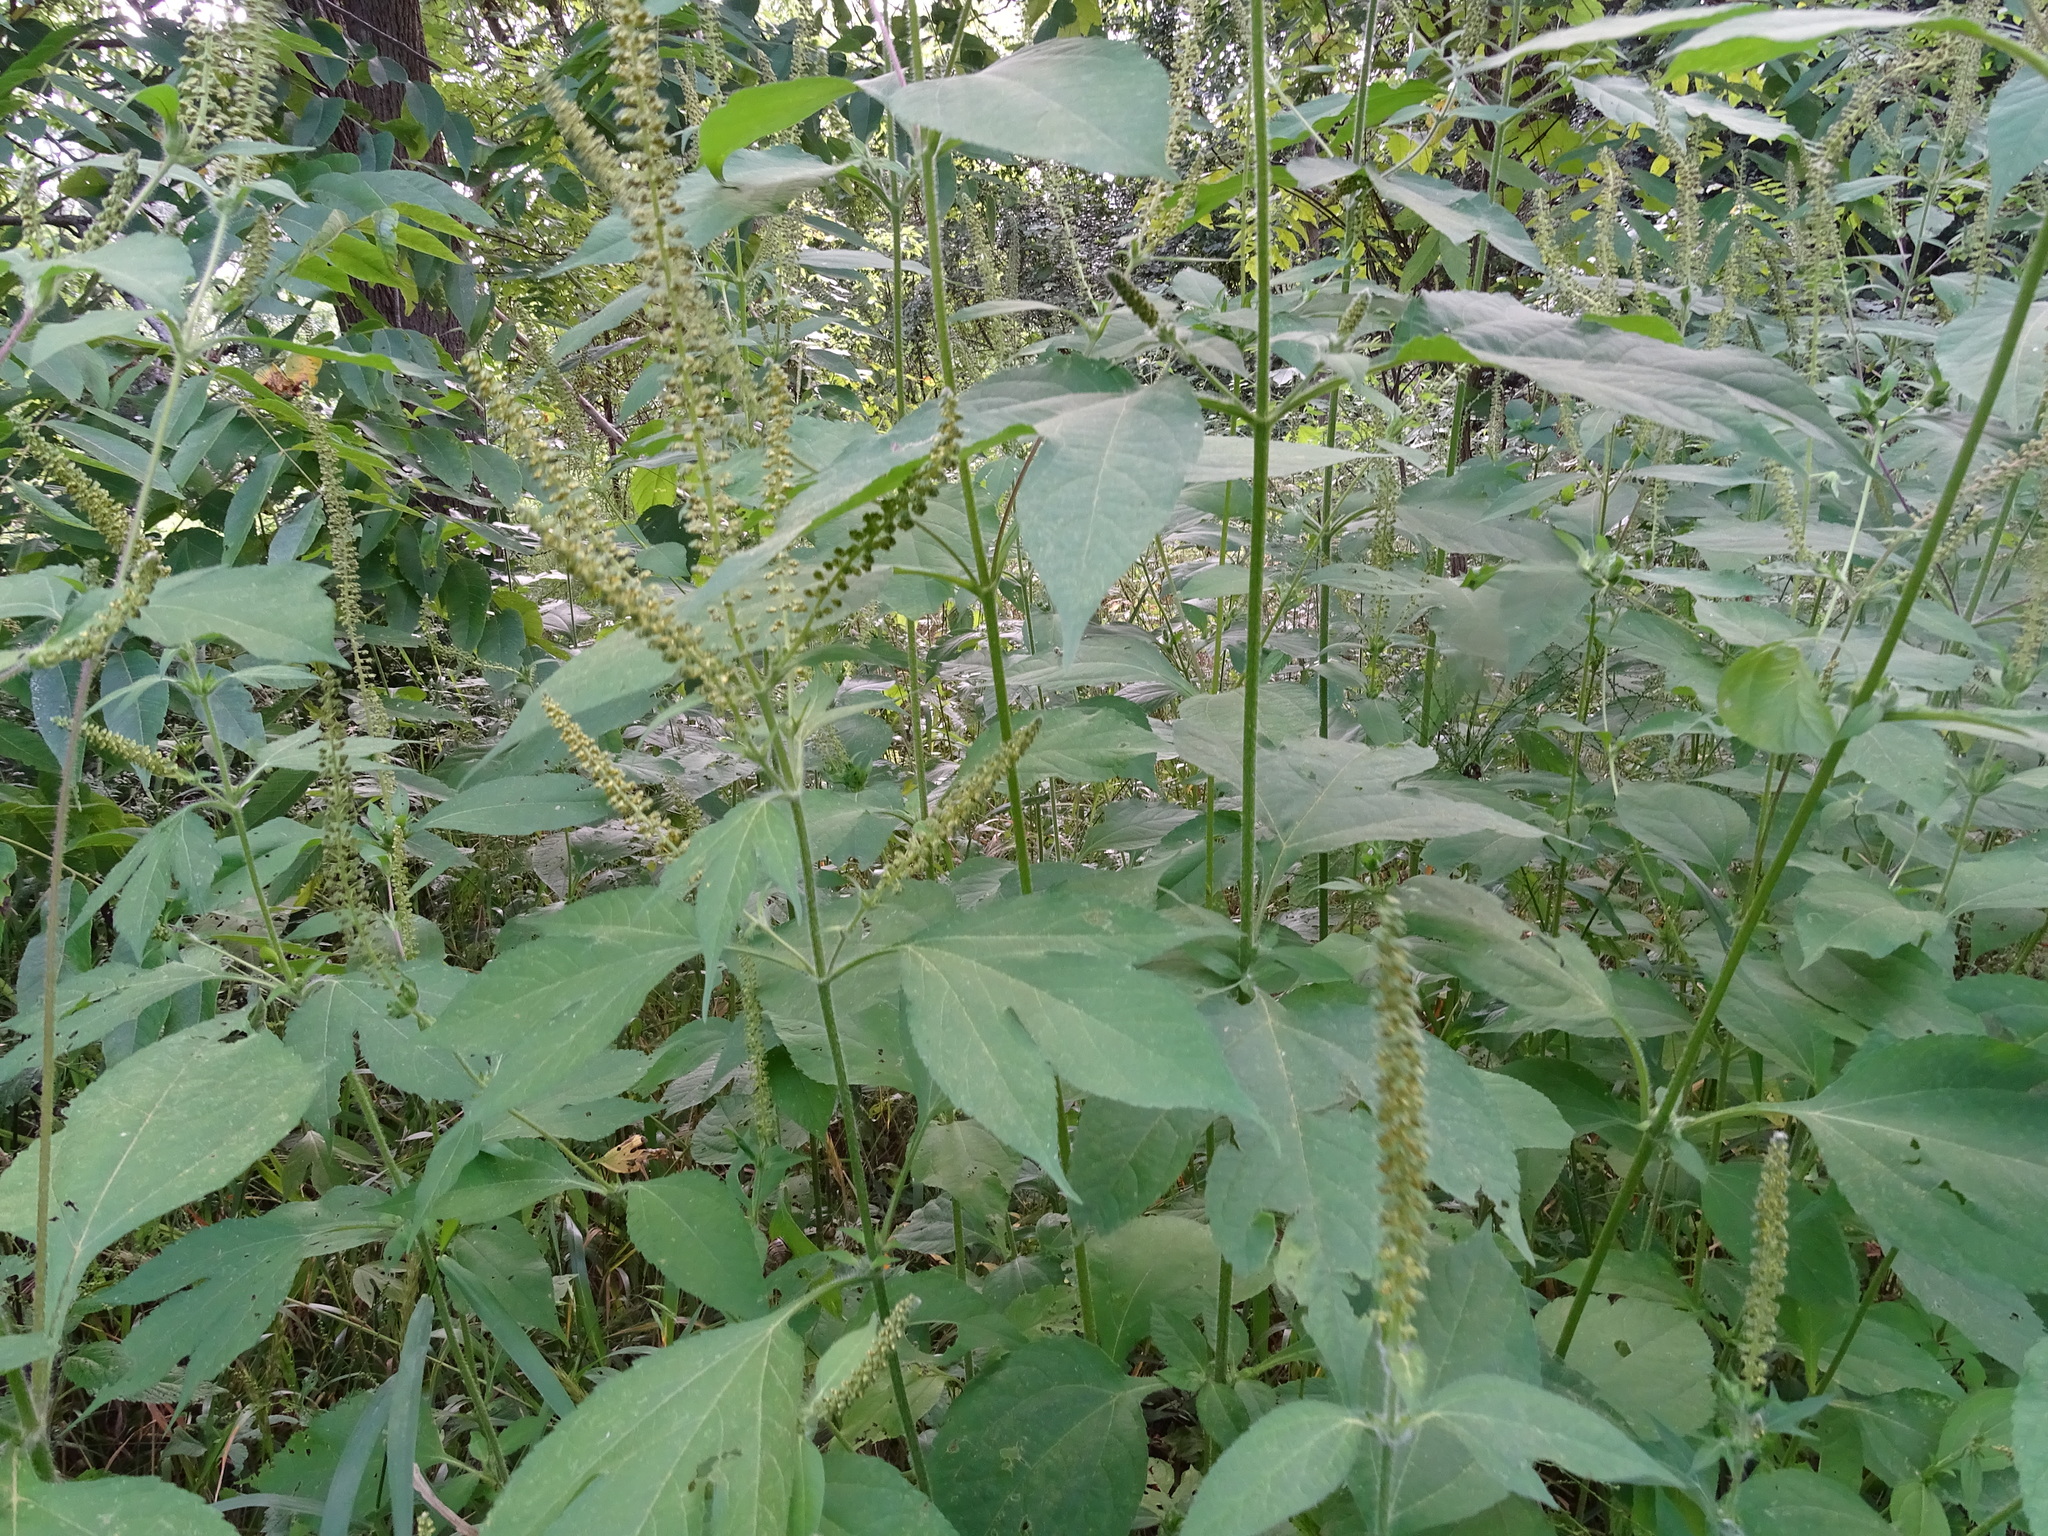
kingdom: Plantae
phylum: Tracheophyta
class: Magnoliopsida
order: Asterales
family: Asteraceae
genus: Ambrosia
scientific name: Ambrosia trifida
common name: Giant ragweed
